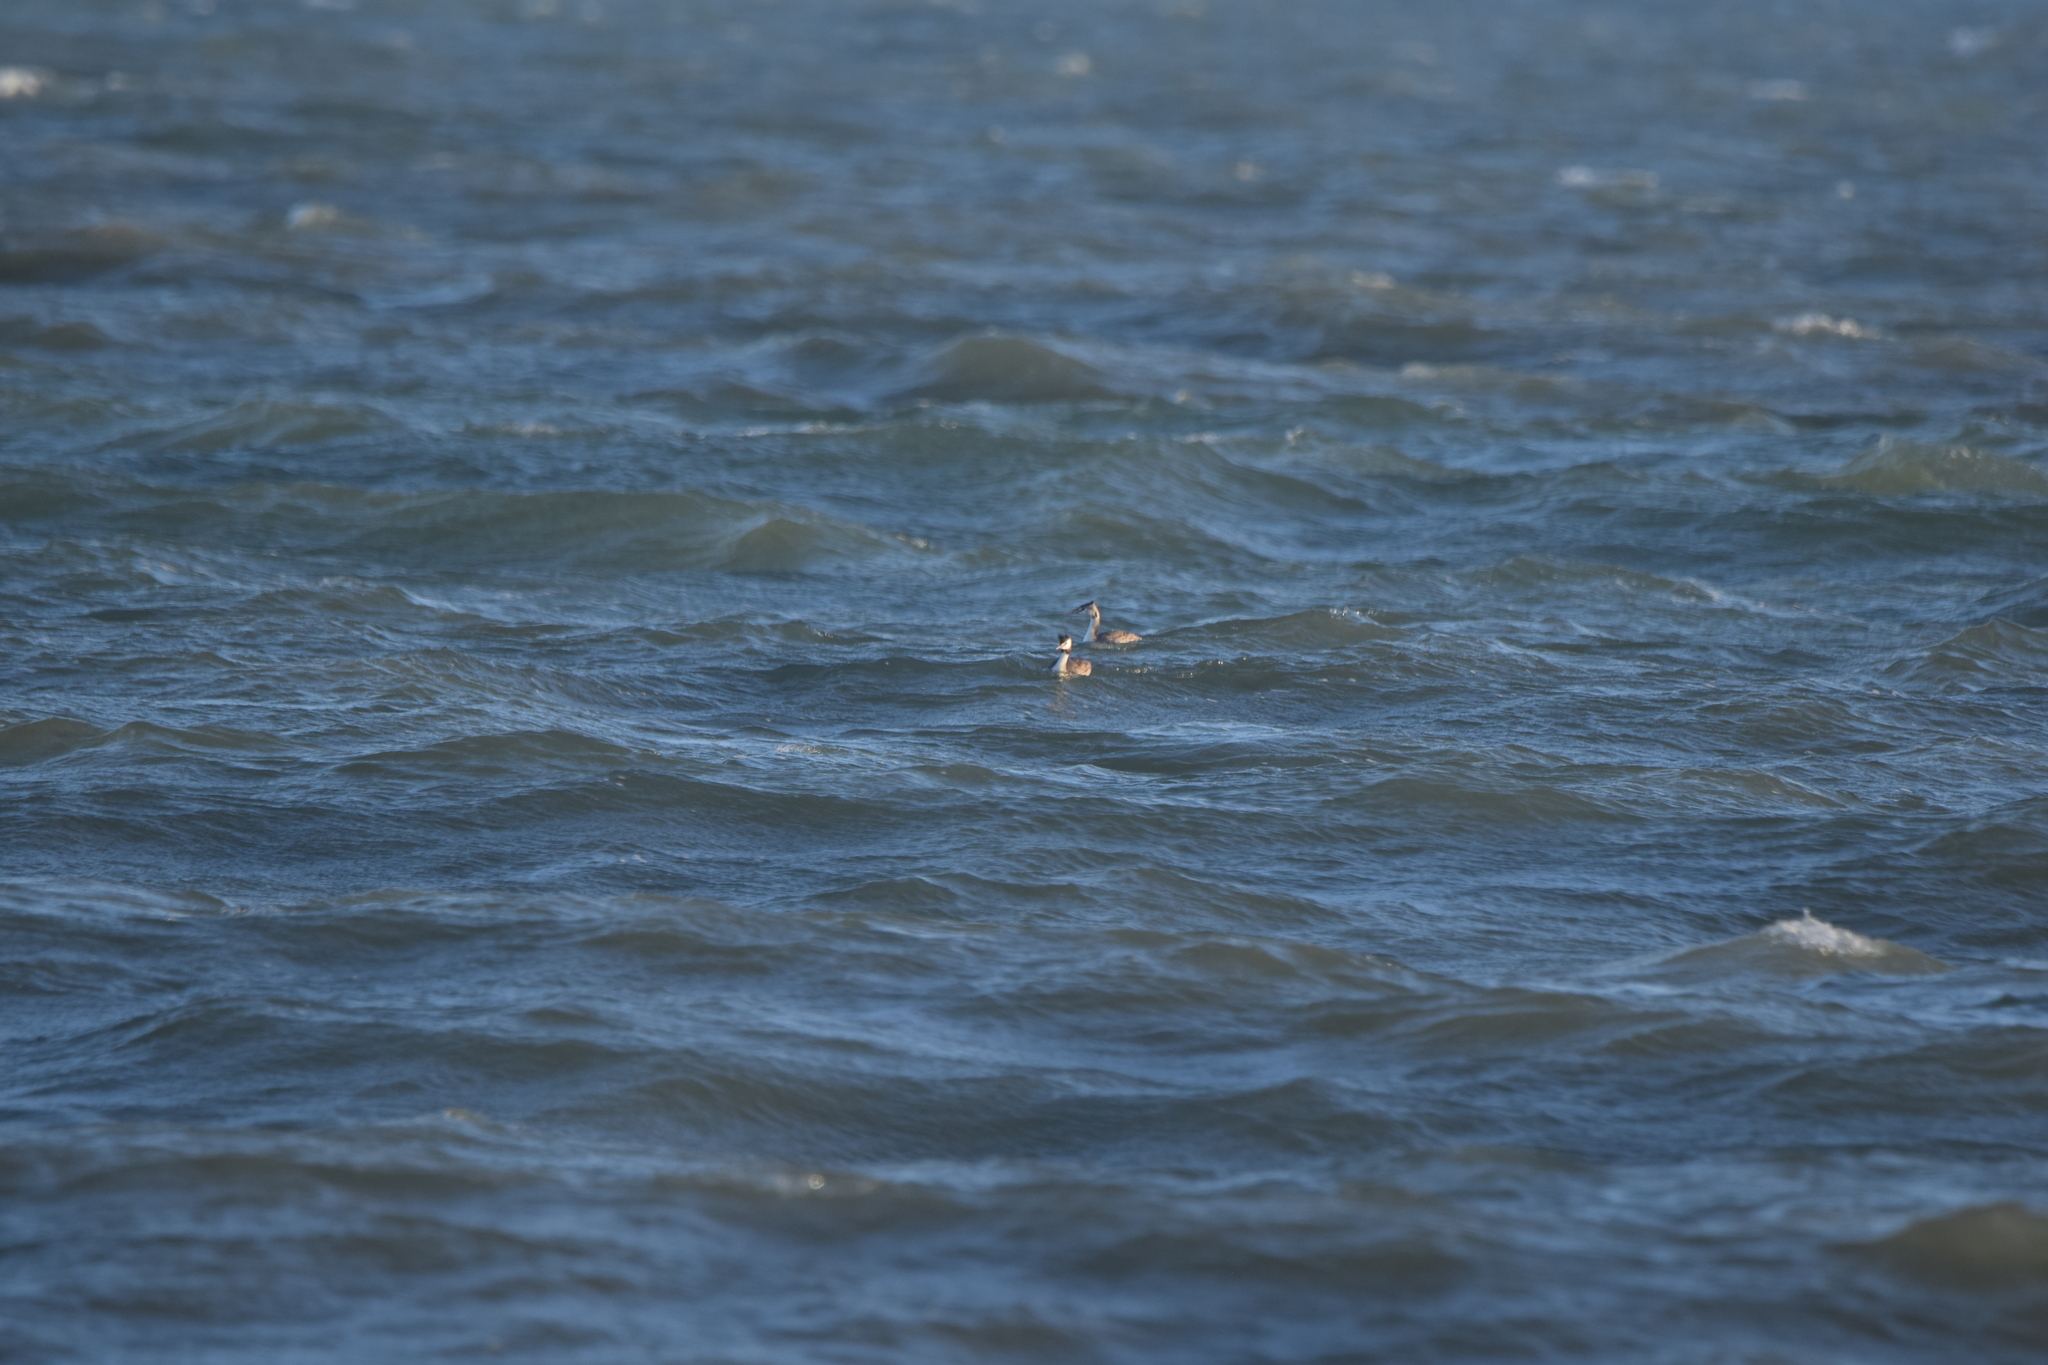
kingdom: Animalia
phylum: Chordata
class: Aves
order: Podicipediformes
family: Podicipedidae
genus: Podiceps
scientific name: Podiceps cristatus
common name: Great crested grebe
